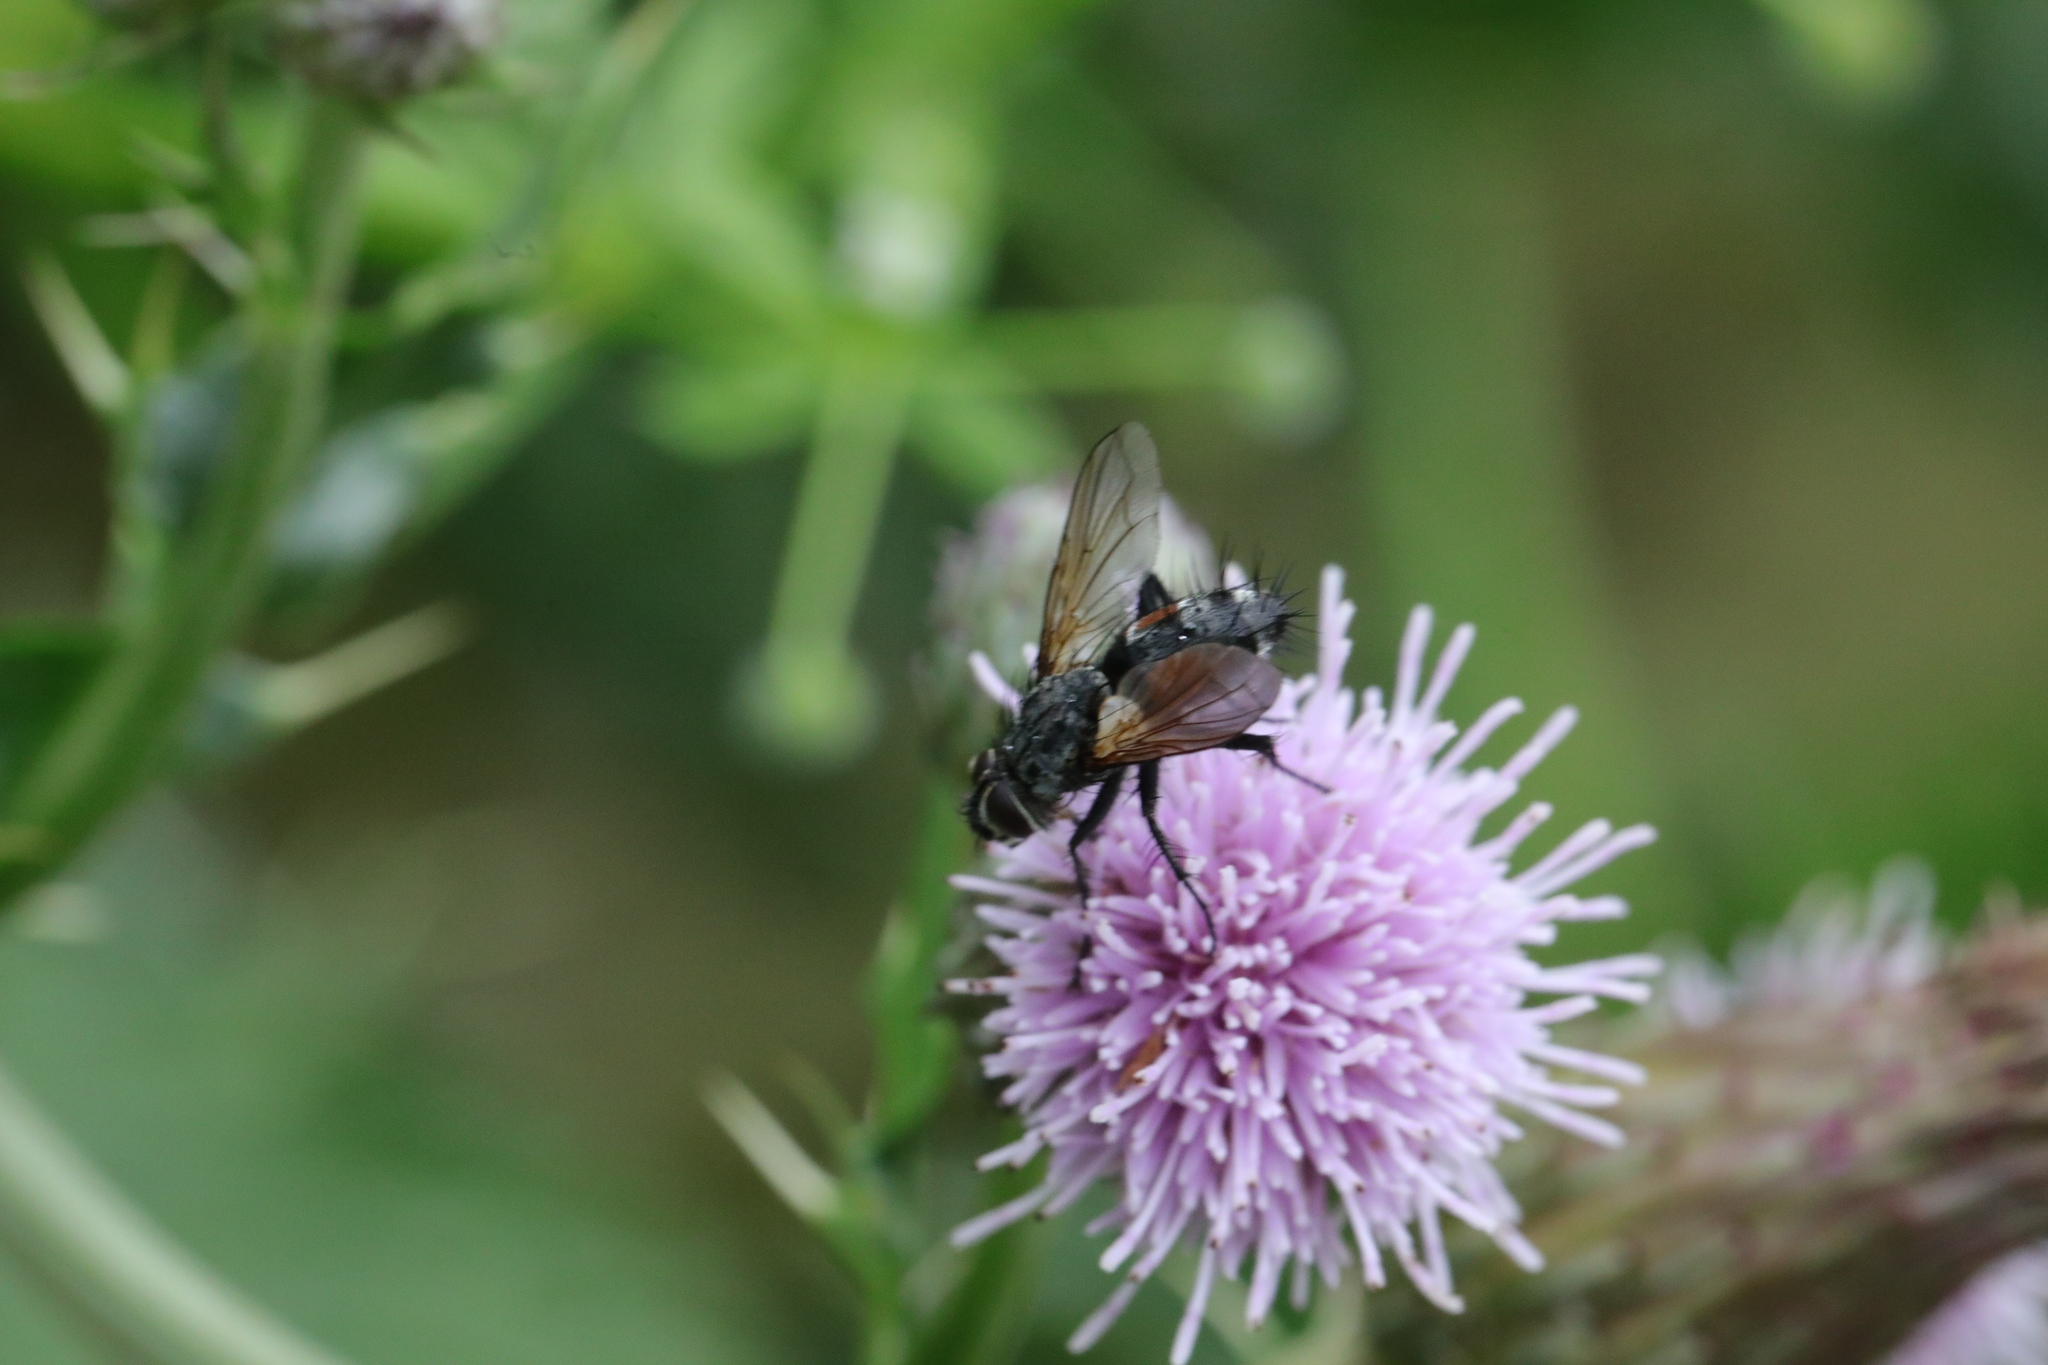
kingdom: Animalia
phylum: Arthropoda
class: Insecta
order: Diptera
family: Tachinidae
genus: Eriothrix
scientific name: Eriothrix rufomaculatus
